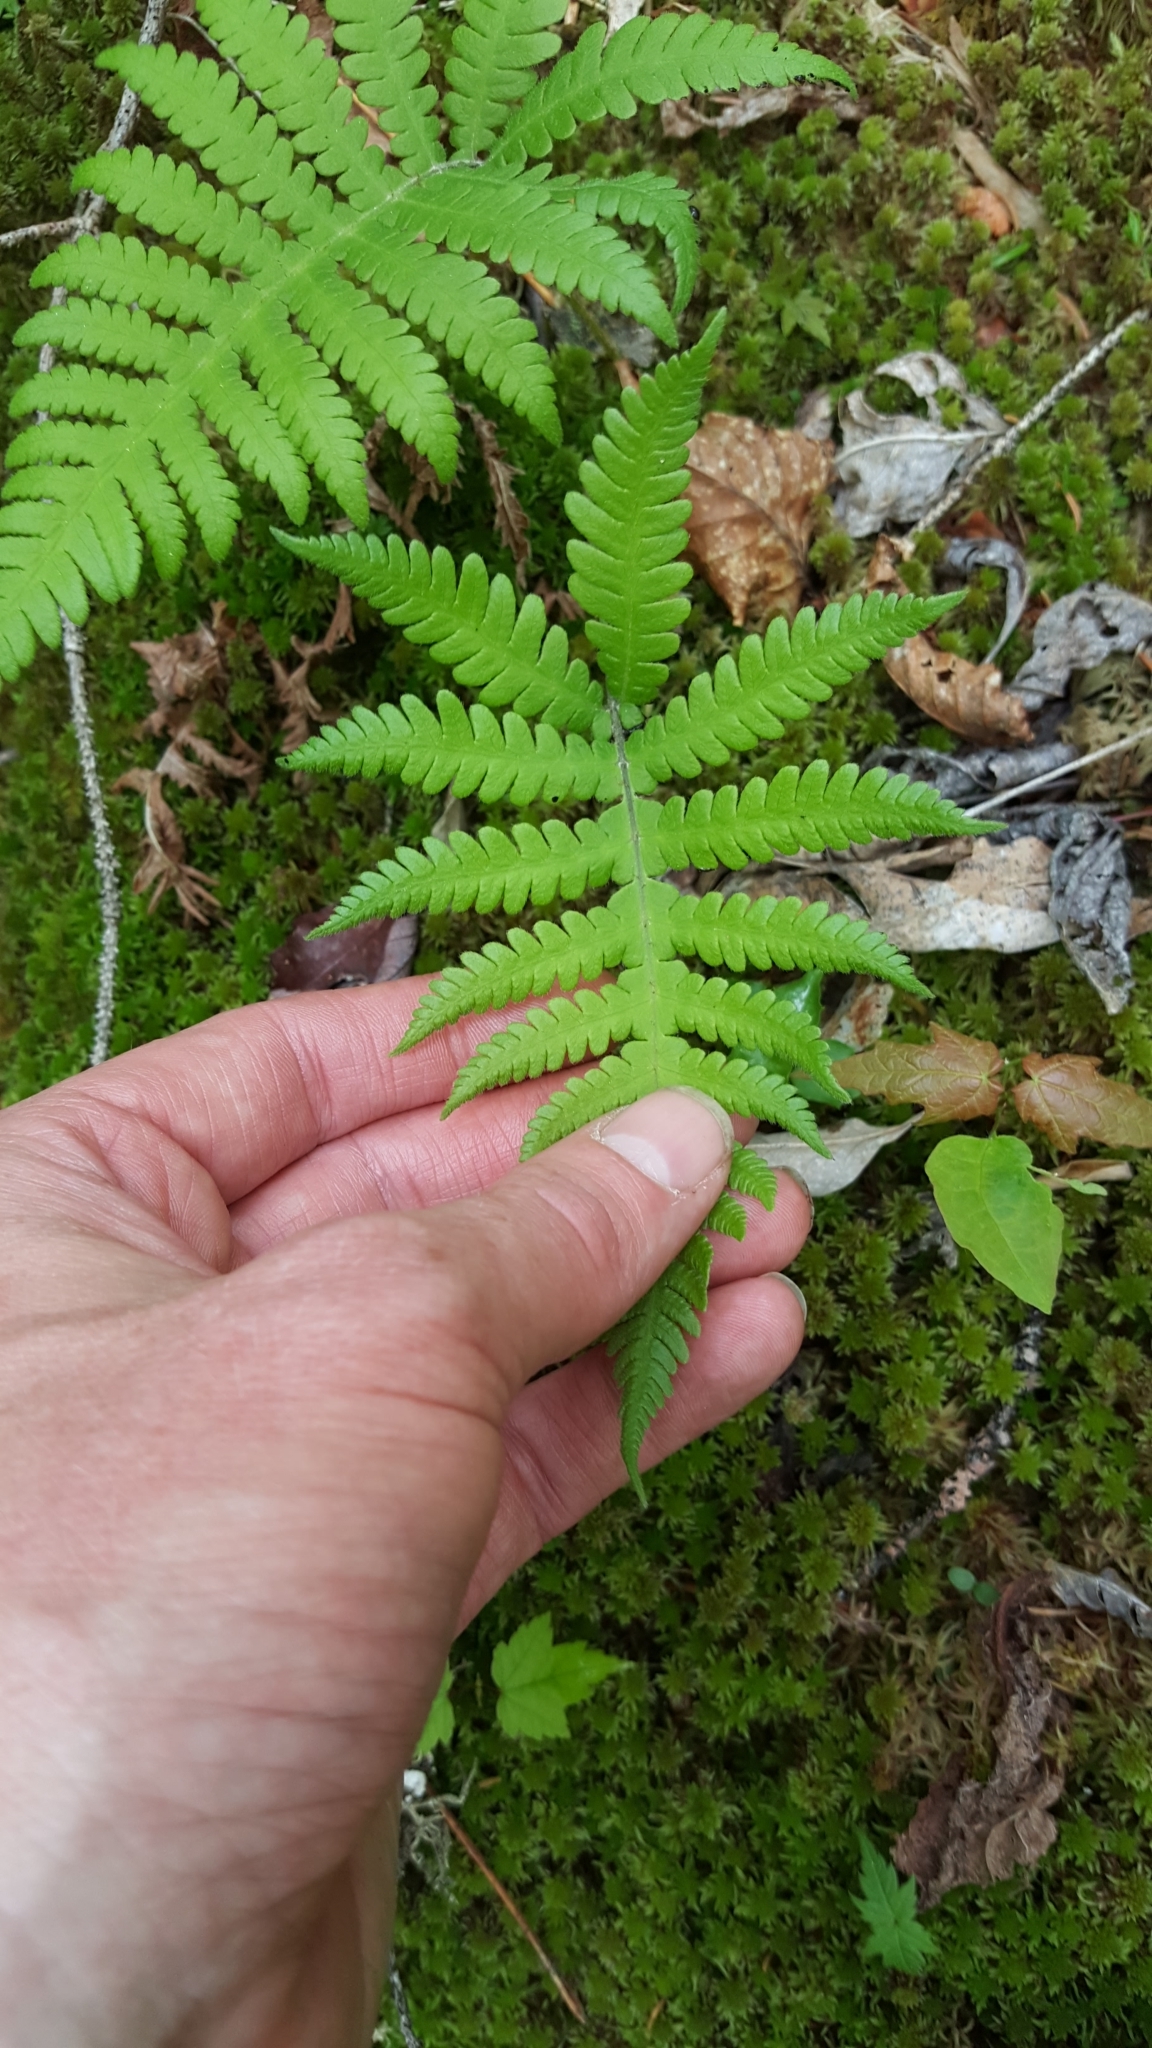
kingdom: Plantae
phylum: Tracheophyta
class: Polypodiopsida
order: Polypodiales
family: Thelypteridaceae
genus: Phegopteris
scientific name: Phegopteris connectilis
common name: Beech fern
